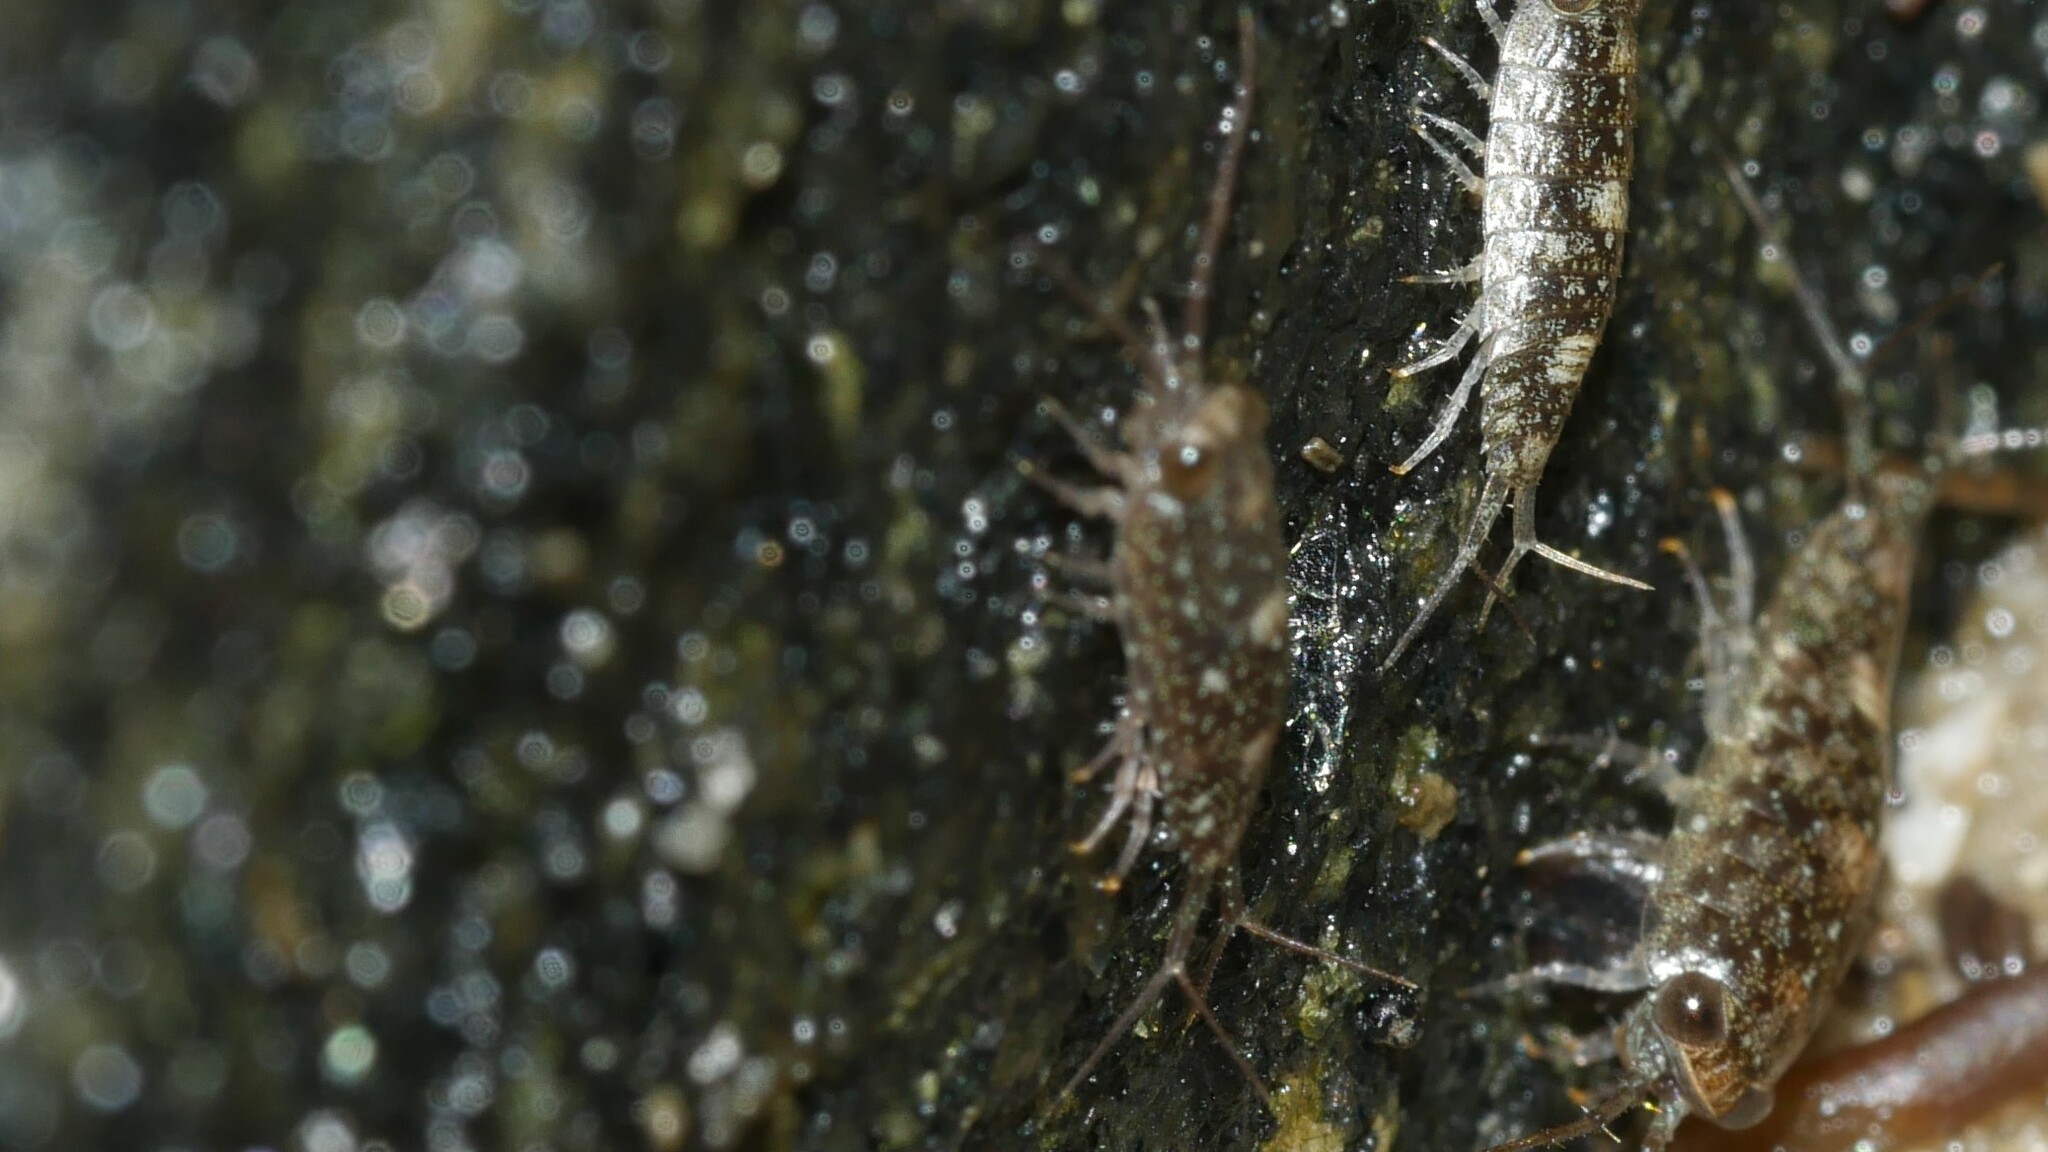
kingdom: Animalia
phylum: Arthropoda
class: Malacostraca
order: Isopoda
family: Ligiidae
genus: Ligia
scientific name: Ligia exotica
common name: Wharf roach
